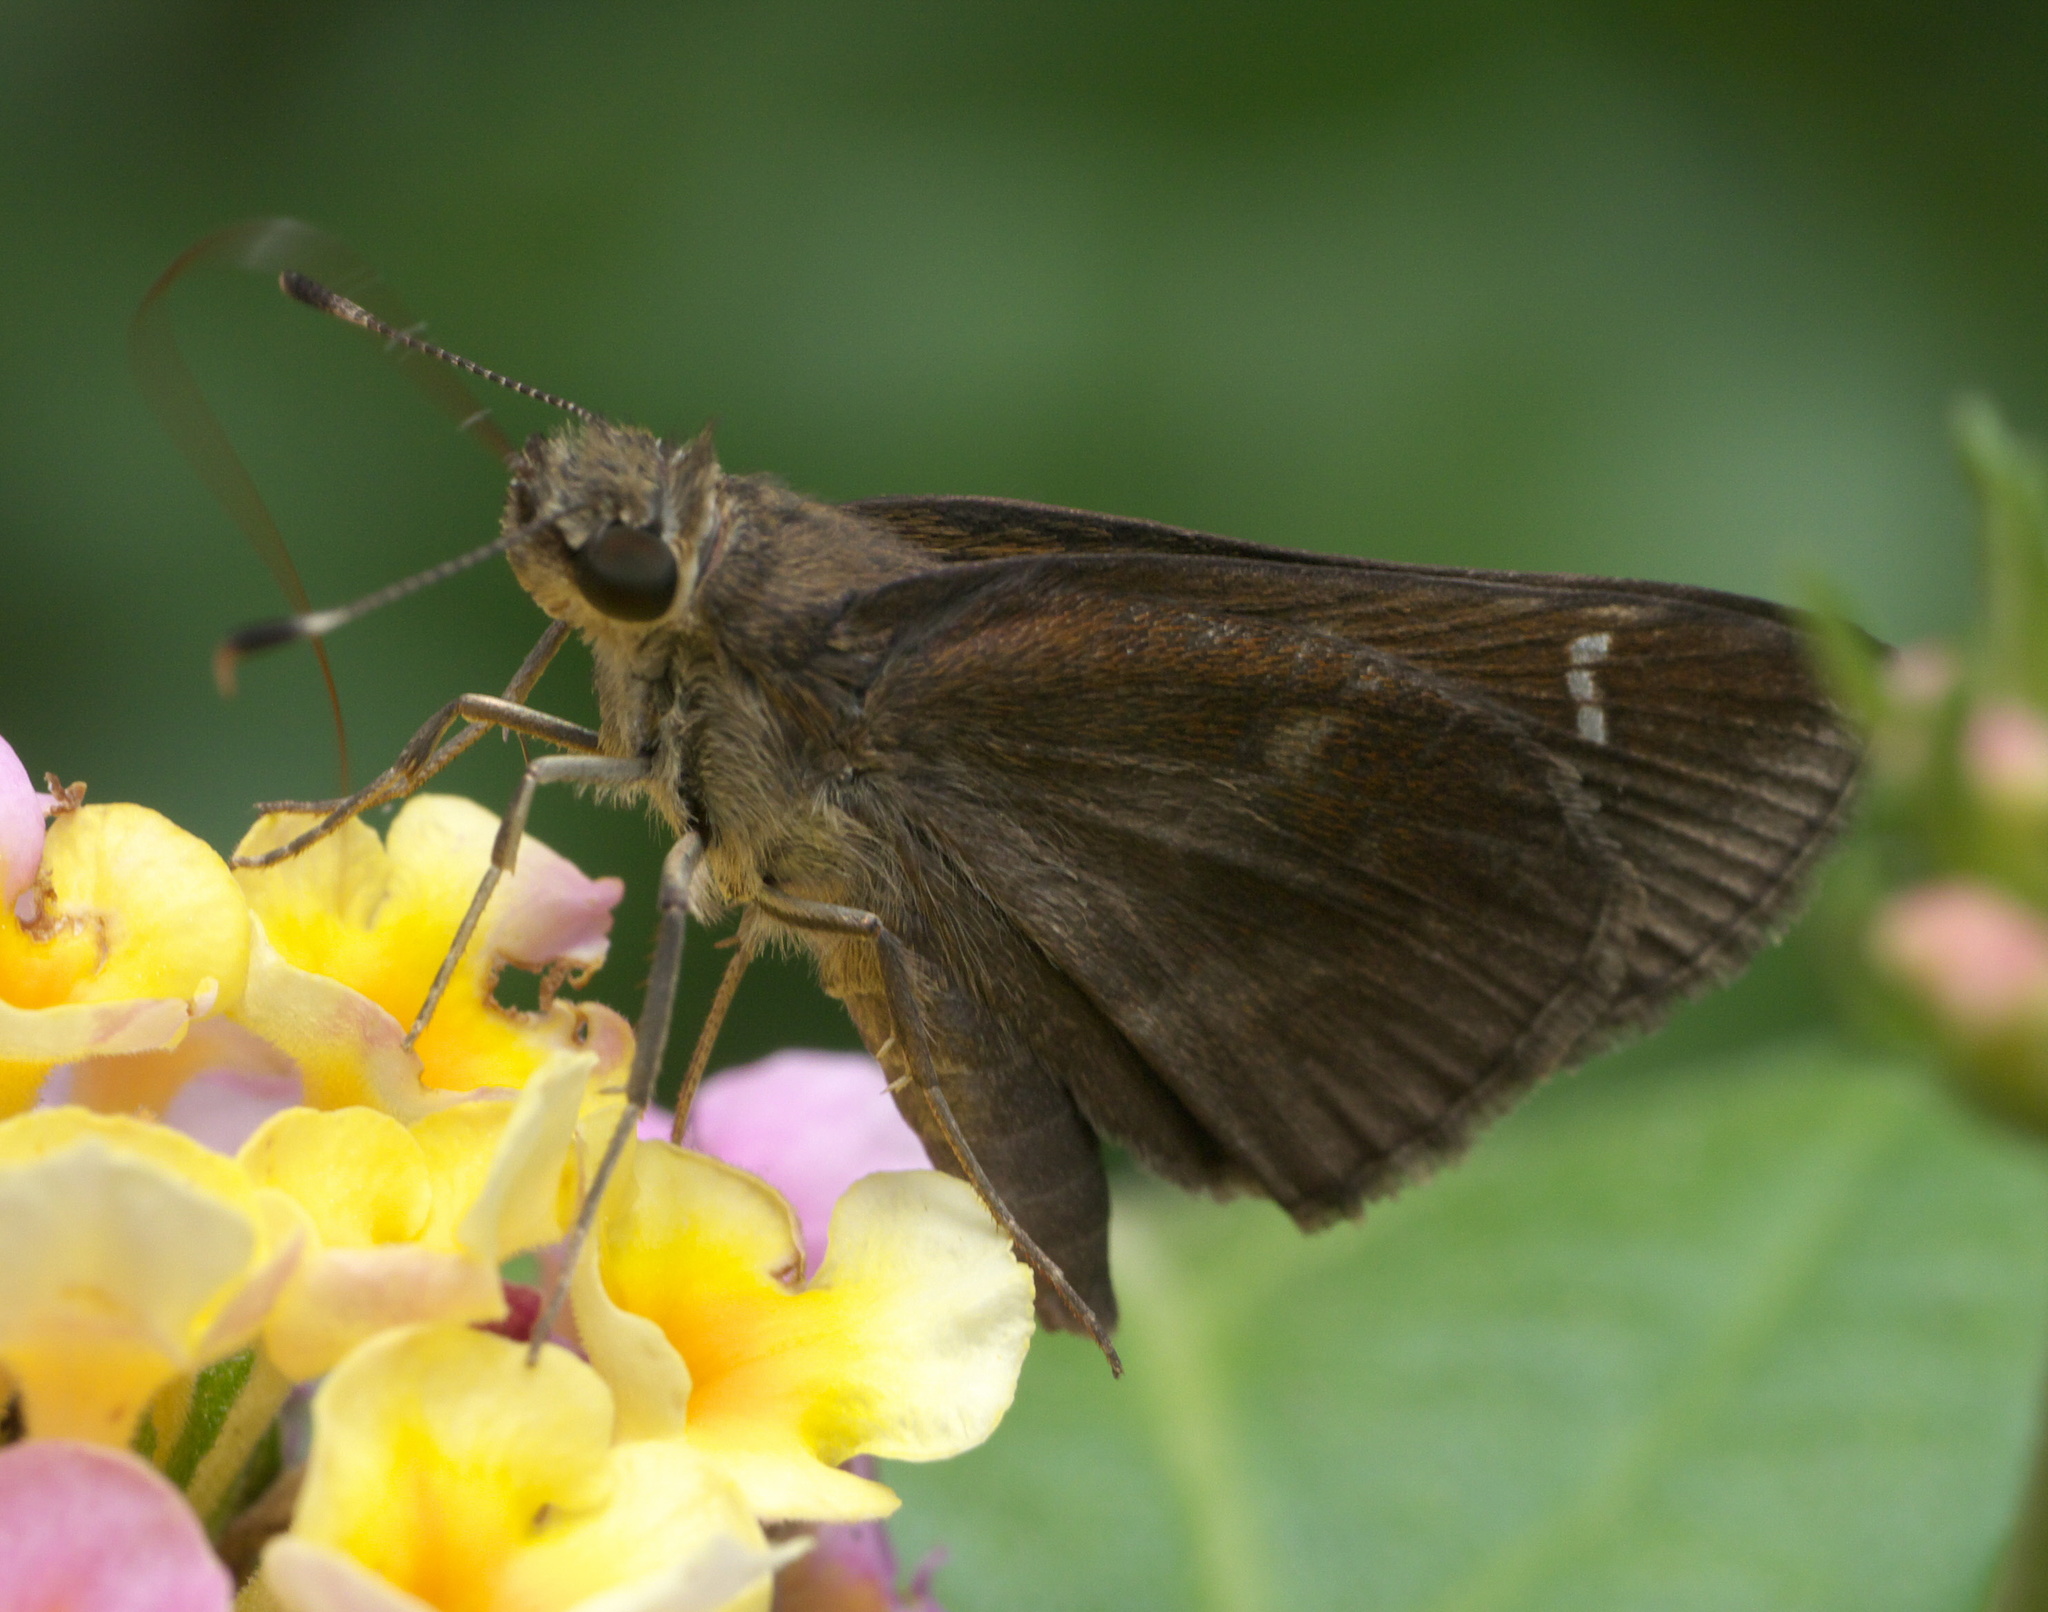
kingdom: Animalia
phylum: Arthropoda
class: Insecta
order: Lepidoptera
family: Hesperiidae
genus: Lerema
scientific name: Lerema accius
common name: Clouded skipper
